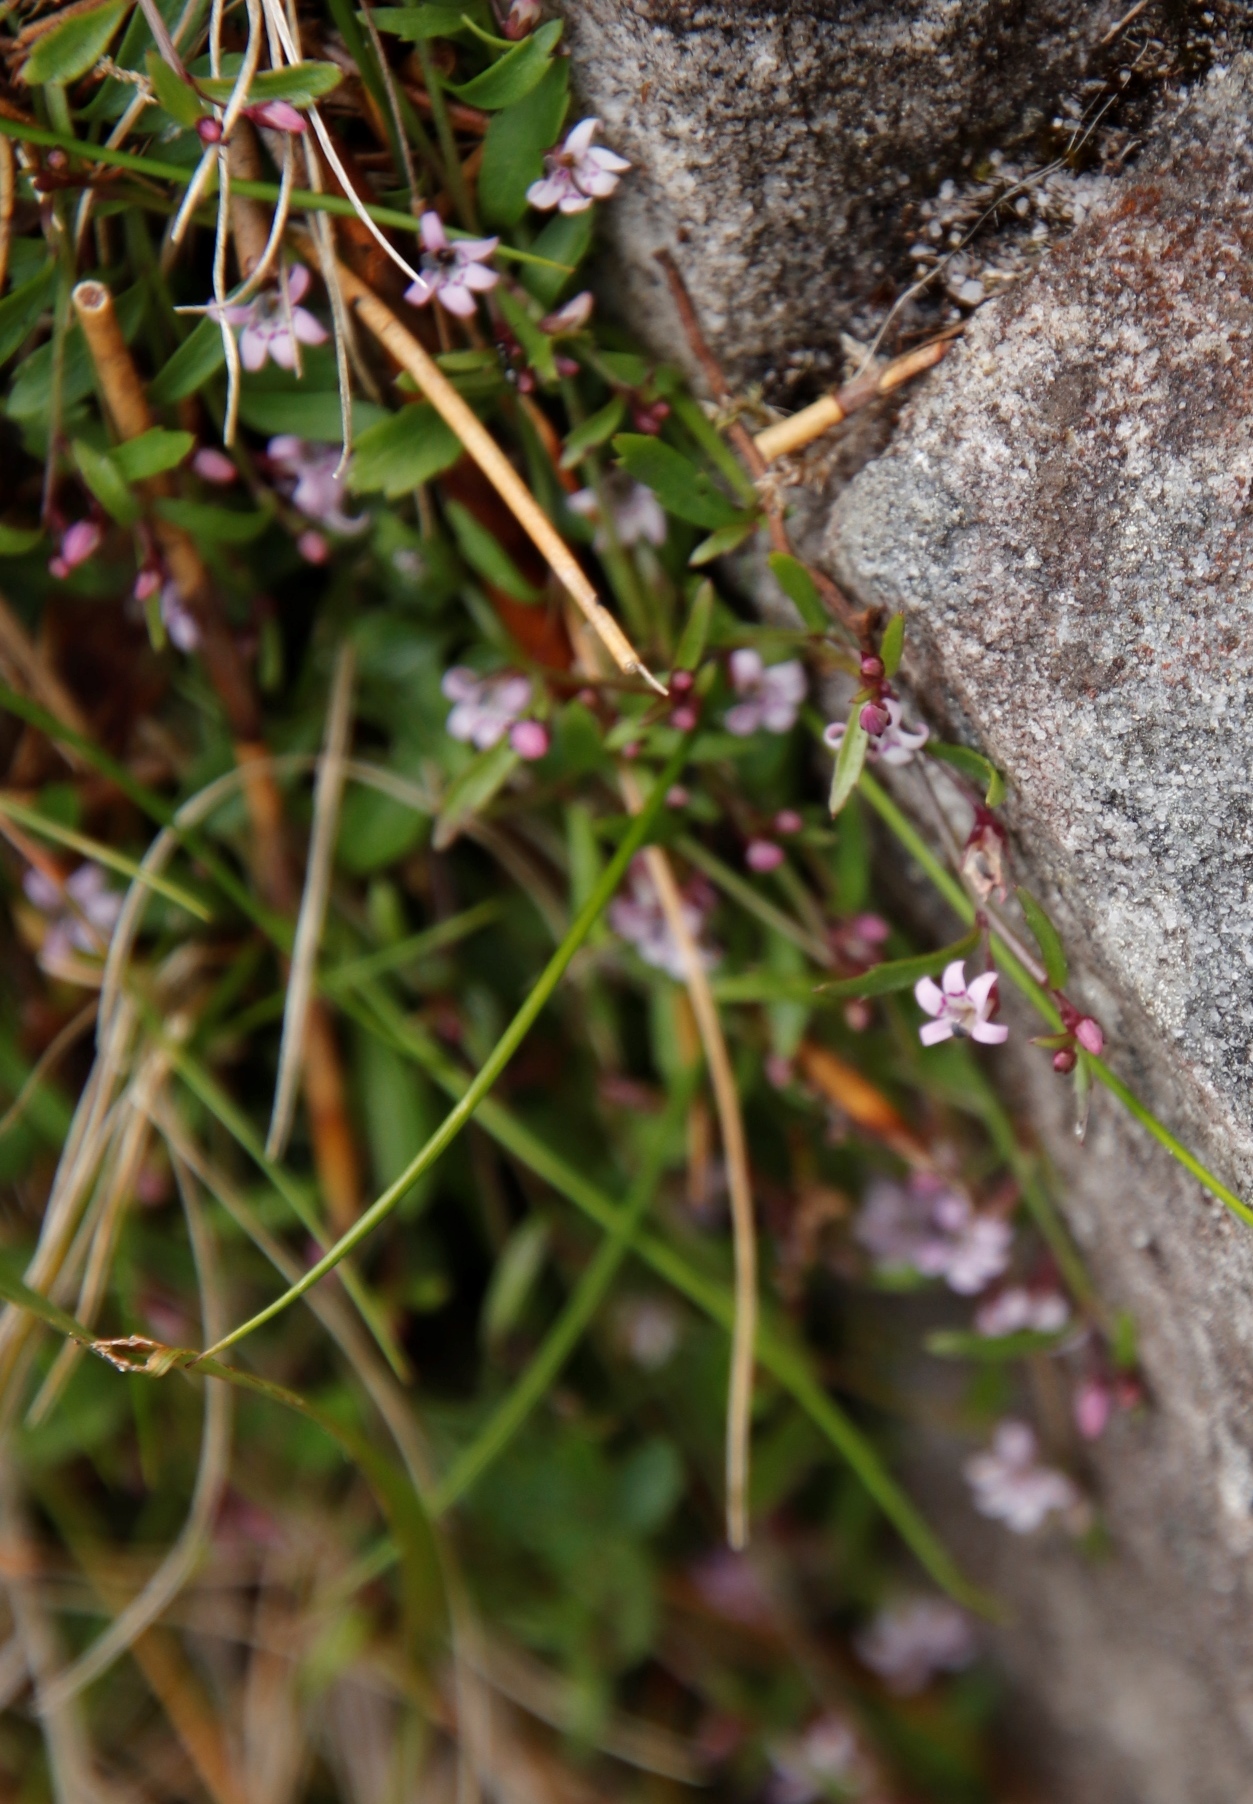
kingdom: Plantae
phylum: Tracheophyta
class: Magnoliopsida
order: Asterales
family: Campanulaceae
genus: Lobelia
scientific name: Lobelia eckloniana
